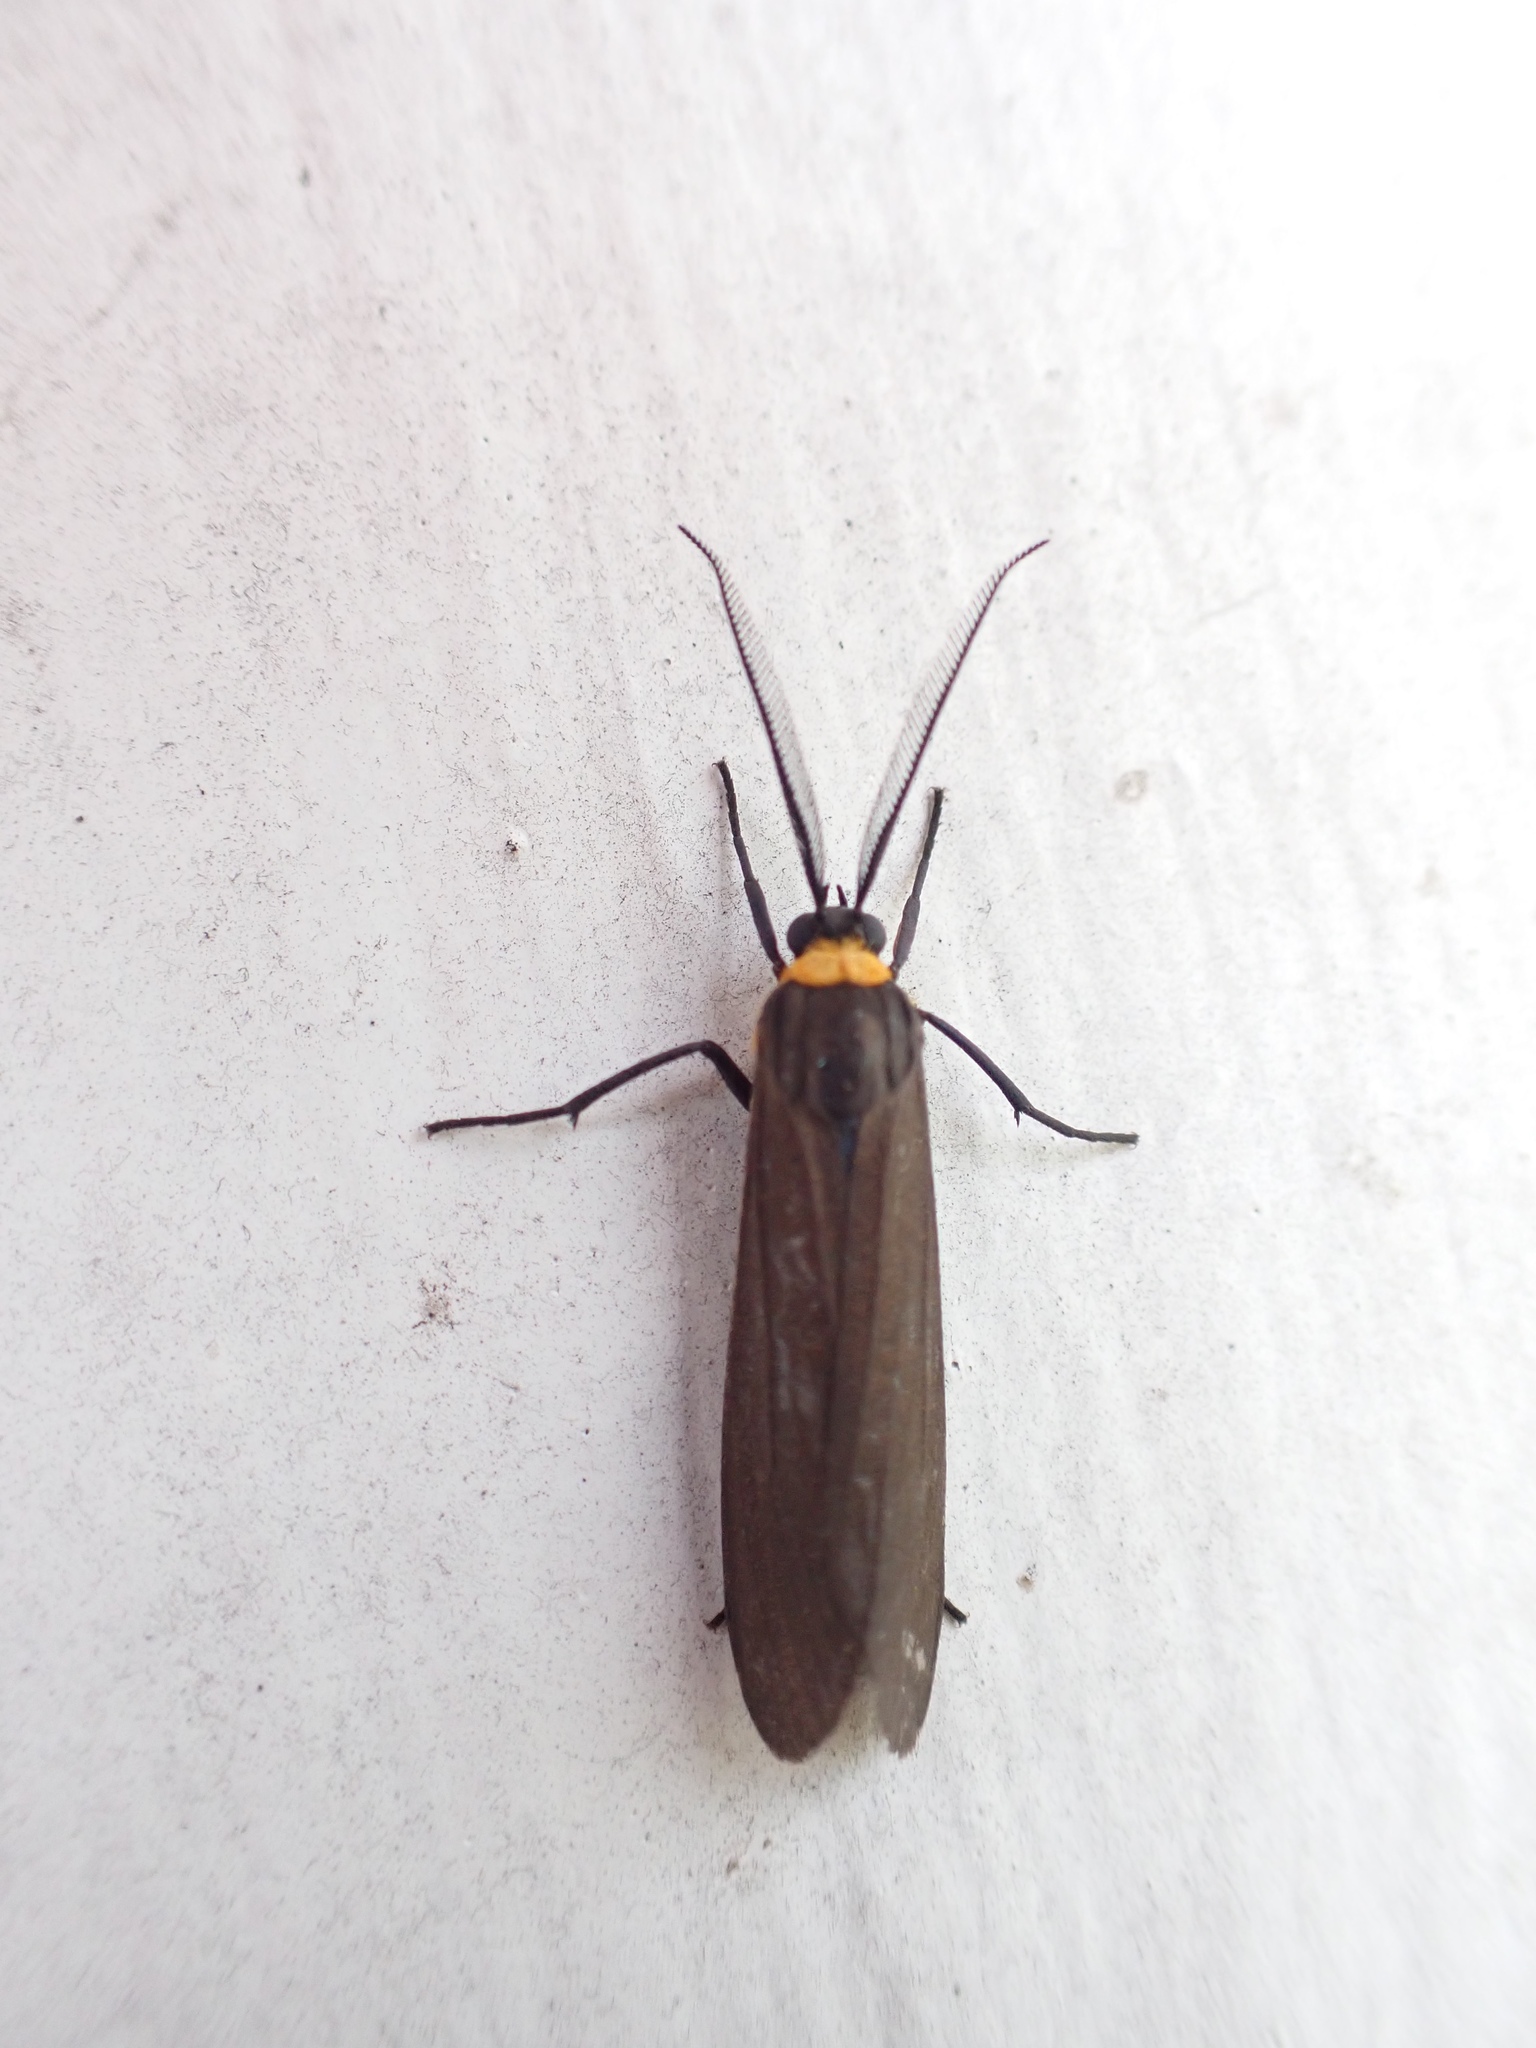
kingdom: Animalia
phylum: Arthropoda
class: Insecta
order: Lepidoptera
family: Erebidae
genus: Cisseps
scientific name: Cisseps fulvicollis
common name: Yellow-collared scape moth
